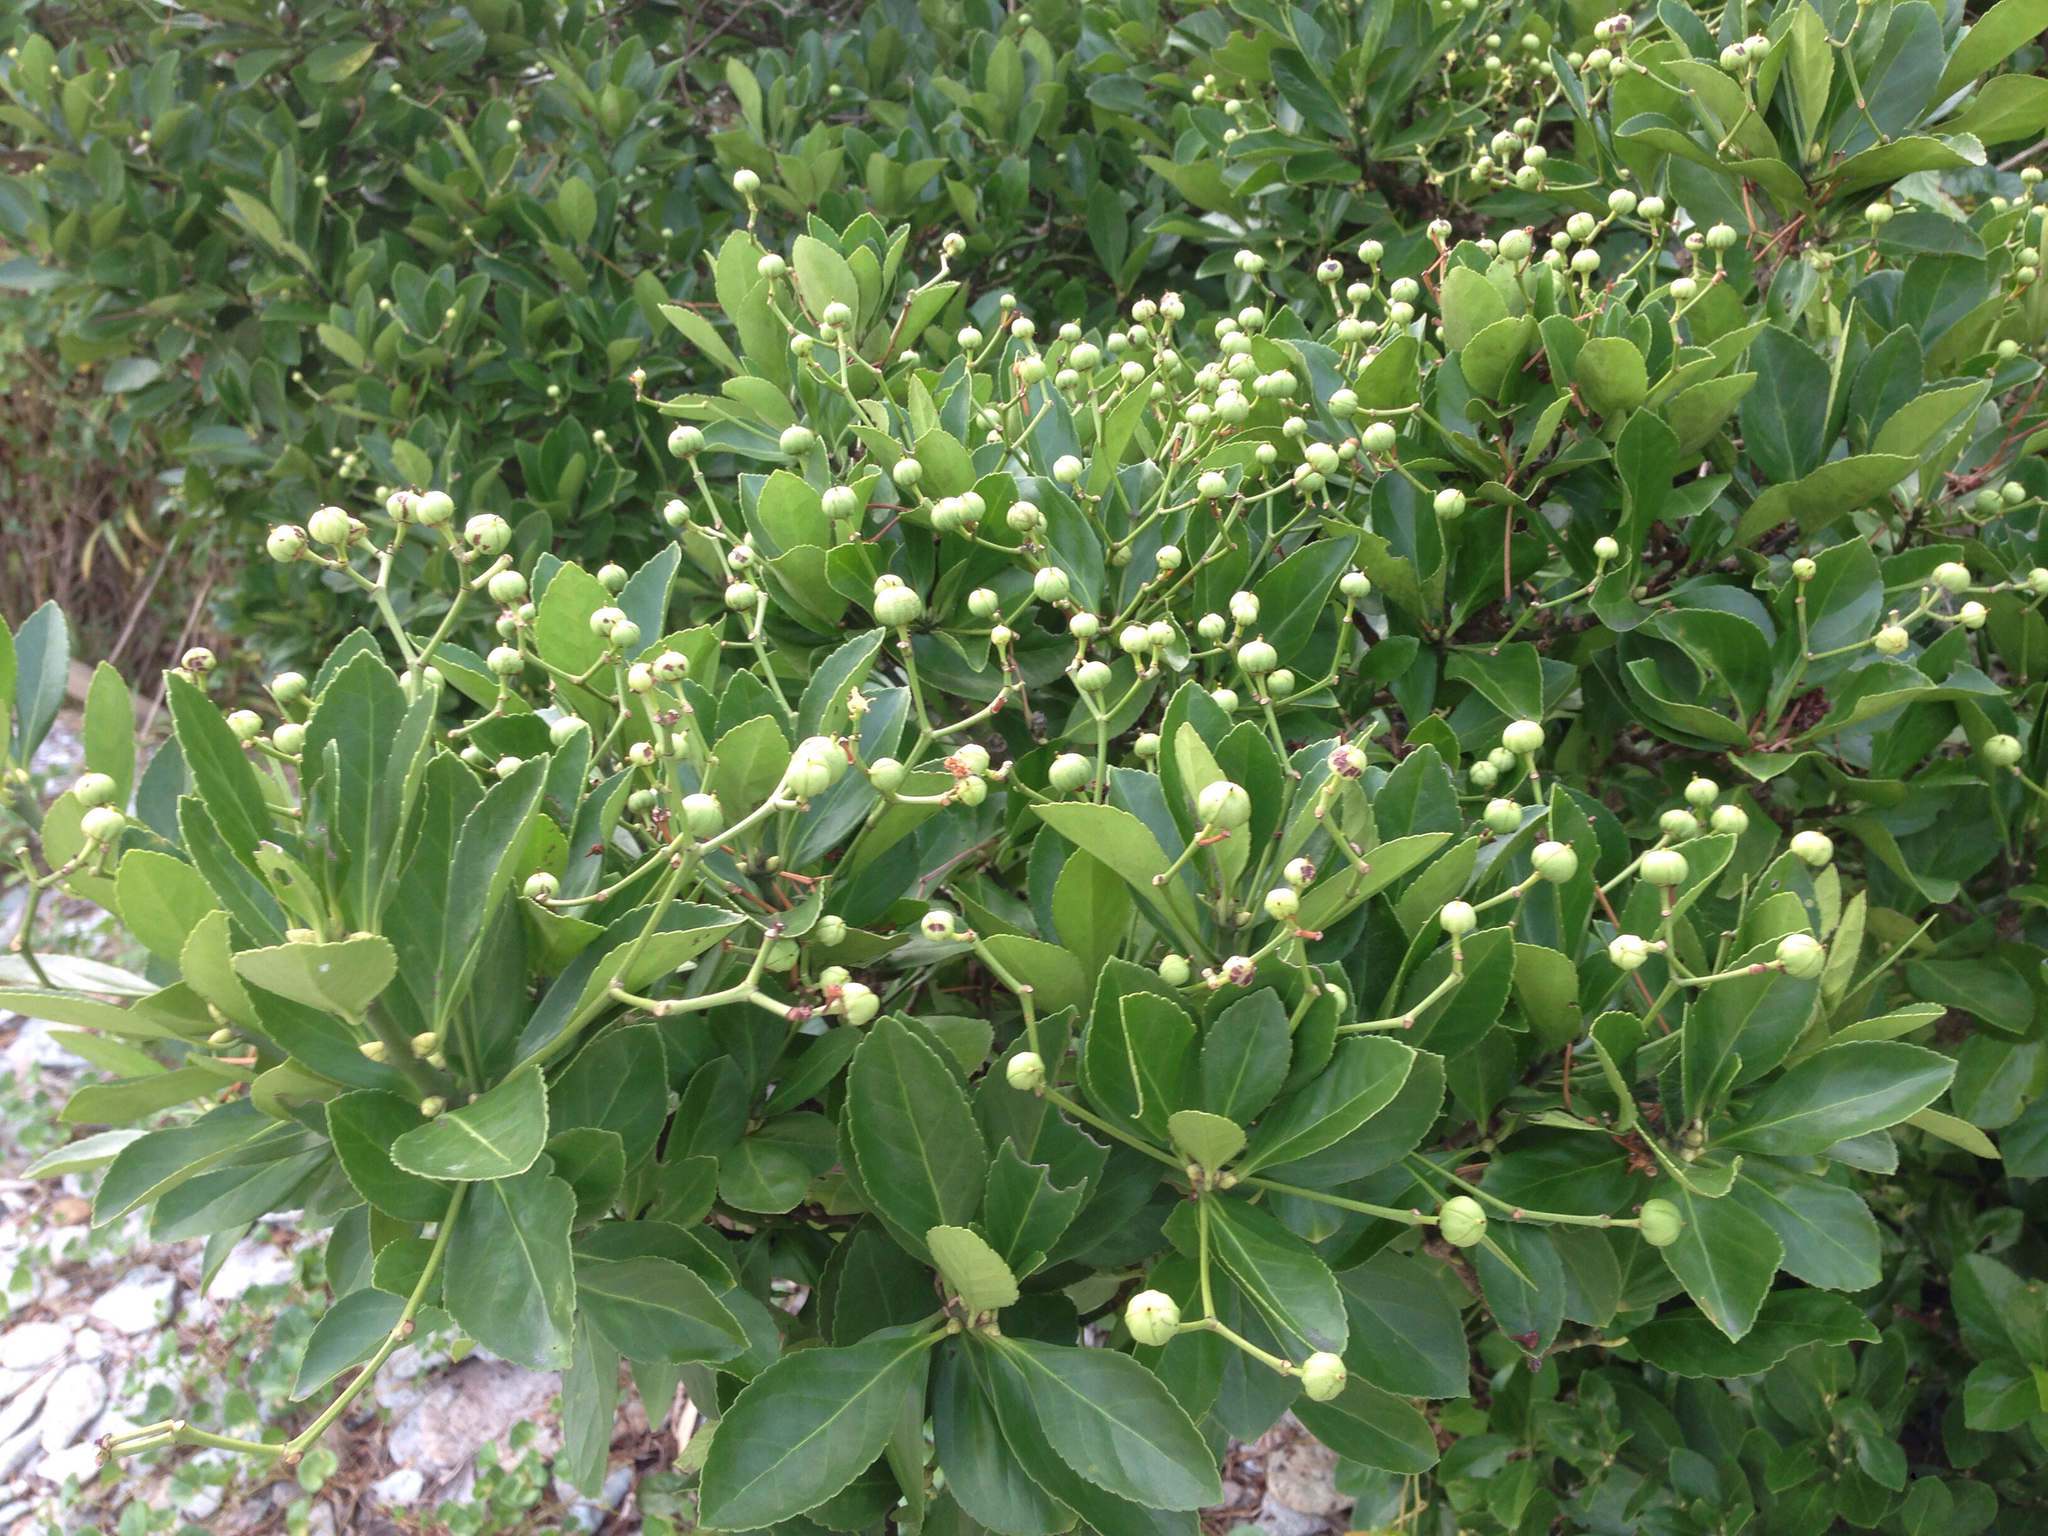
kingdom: Plantae
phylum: Tracheophyta
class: Magnoliopsida
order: Celastrales
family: Celastraceae
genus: Euonymus
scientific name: Euonymus japonicus
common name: Japanese spindletree
